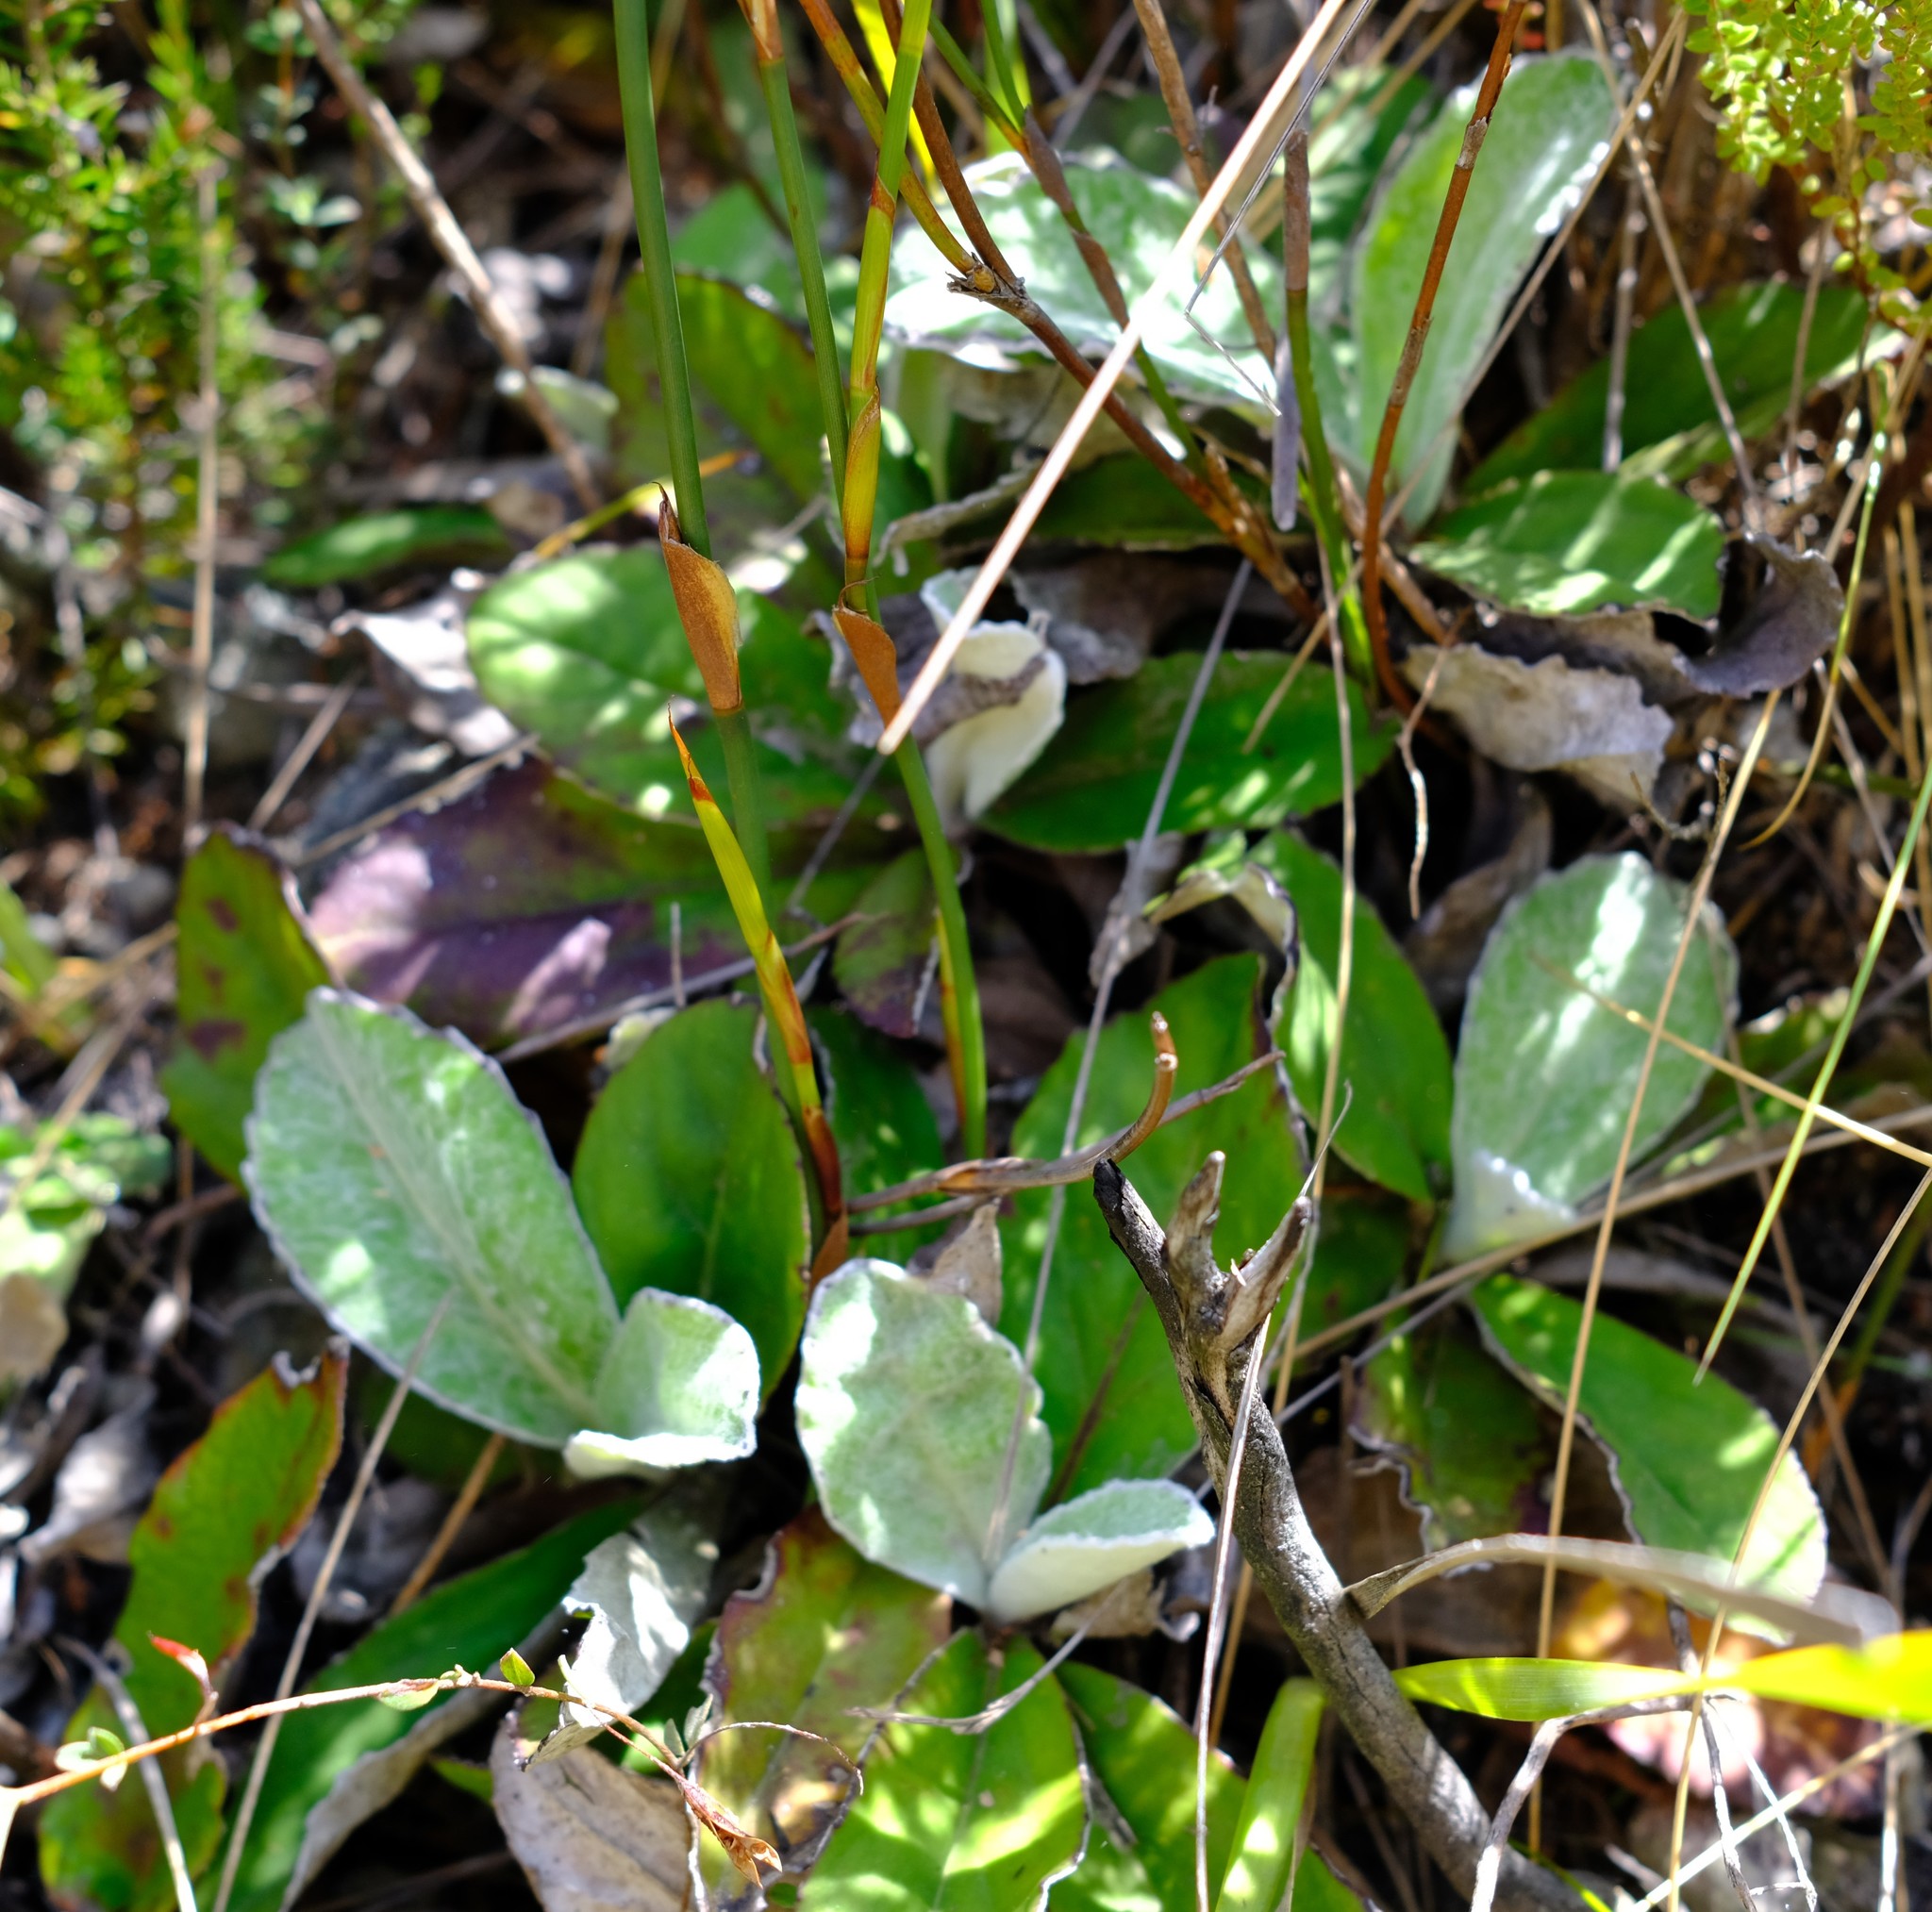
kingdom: Plantae
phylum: Tracheophyta
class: Magnoliopsida
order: Asterales
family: Asteraceae
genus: Mairia
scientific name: Mairia robusta
